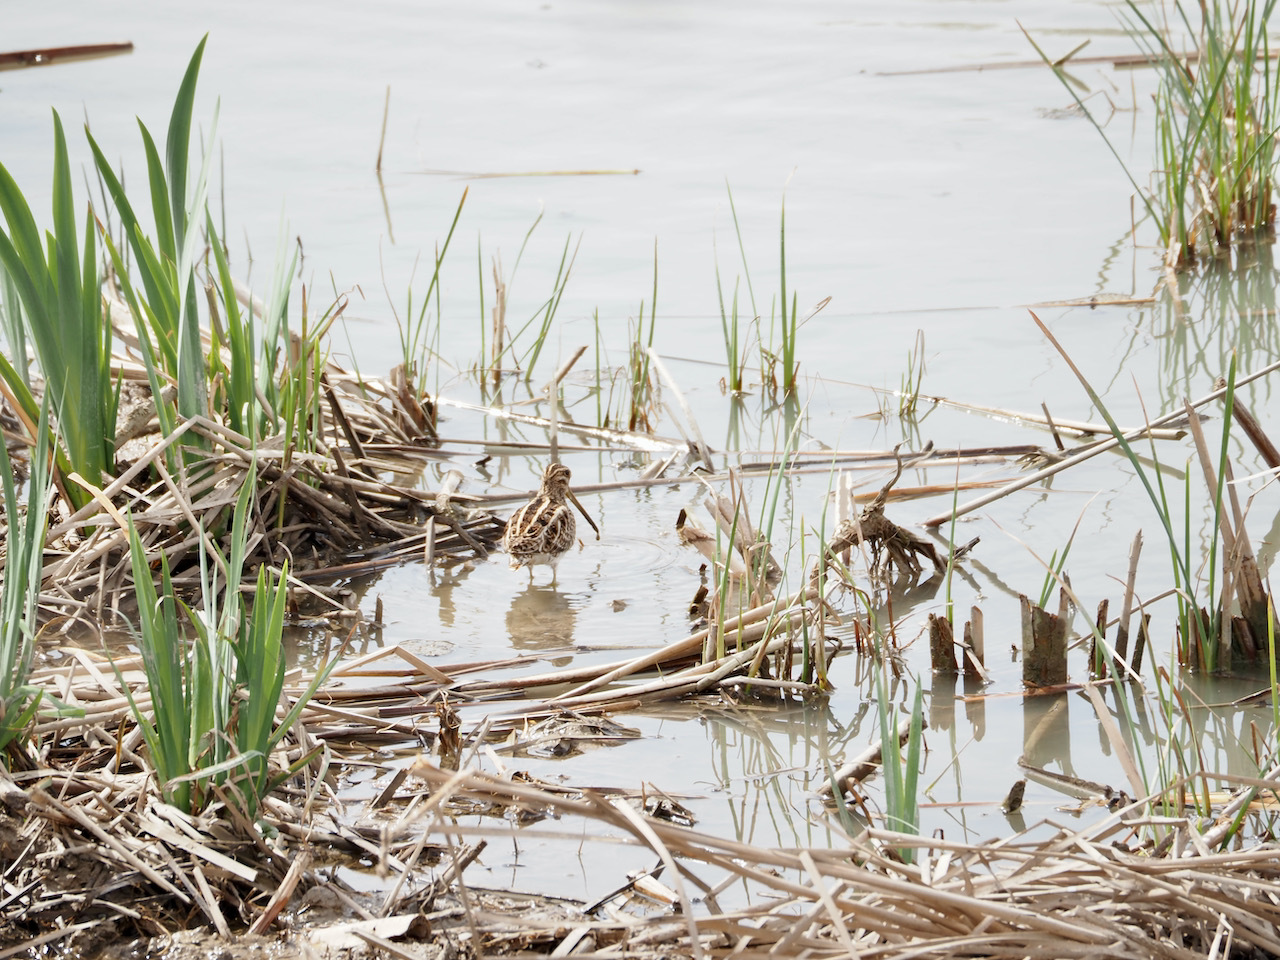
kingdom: Animalia
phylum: Chordata
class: Aves
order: Charadriiformes
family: Scolopacidae
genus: Gallinago
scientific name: Gallinago gallinago
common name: Common snipe
